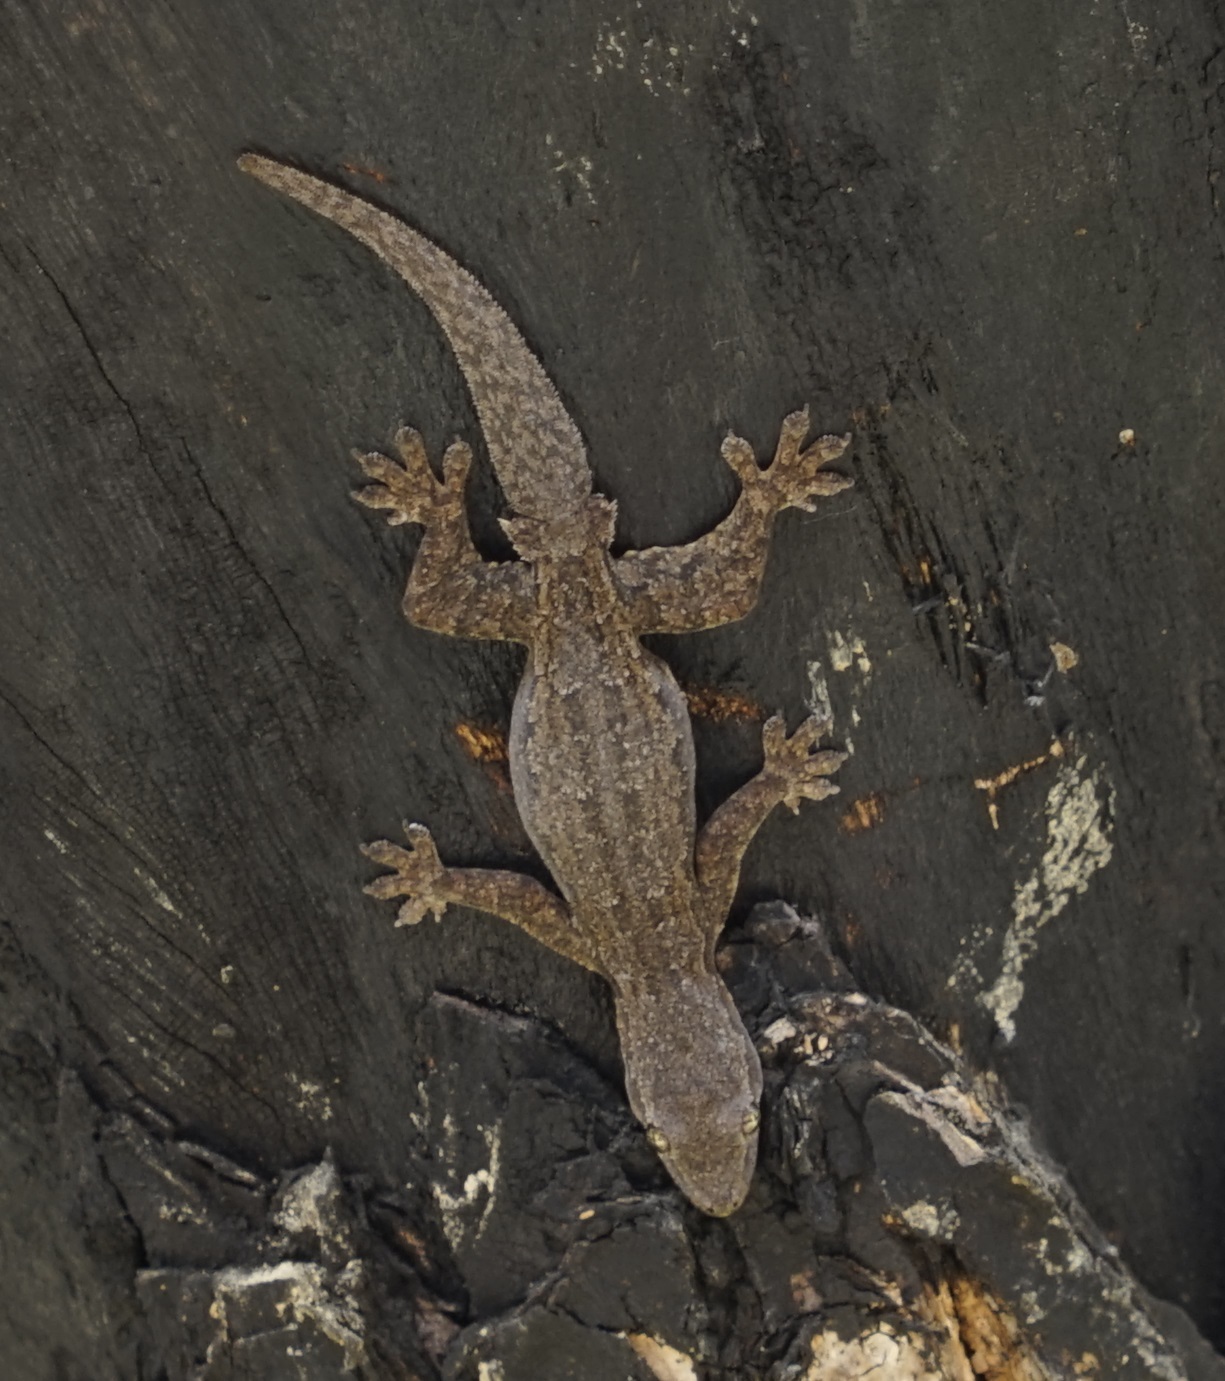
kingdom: Animalia
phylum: Chordata
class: Squamata
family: Gekkonidae
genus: Hemidactylus
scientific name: Hemidactylus platyurus
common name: Flat-tailed house gecko
